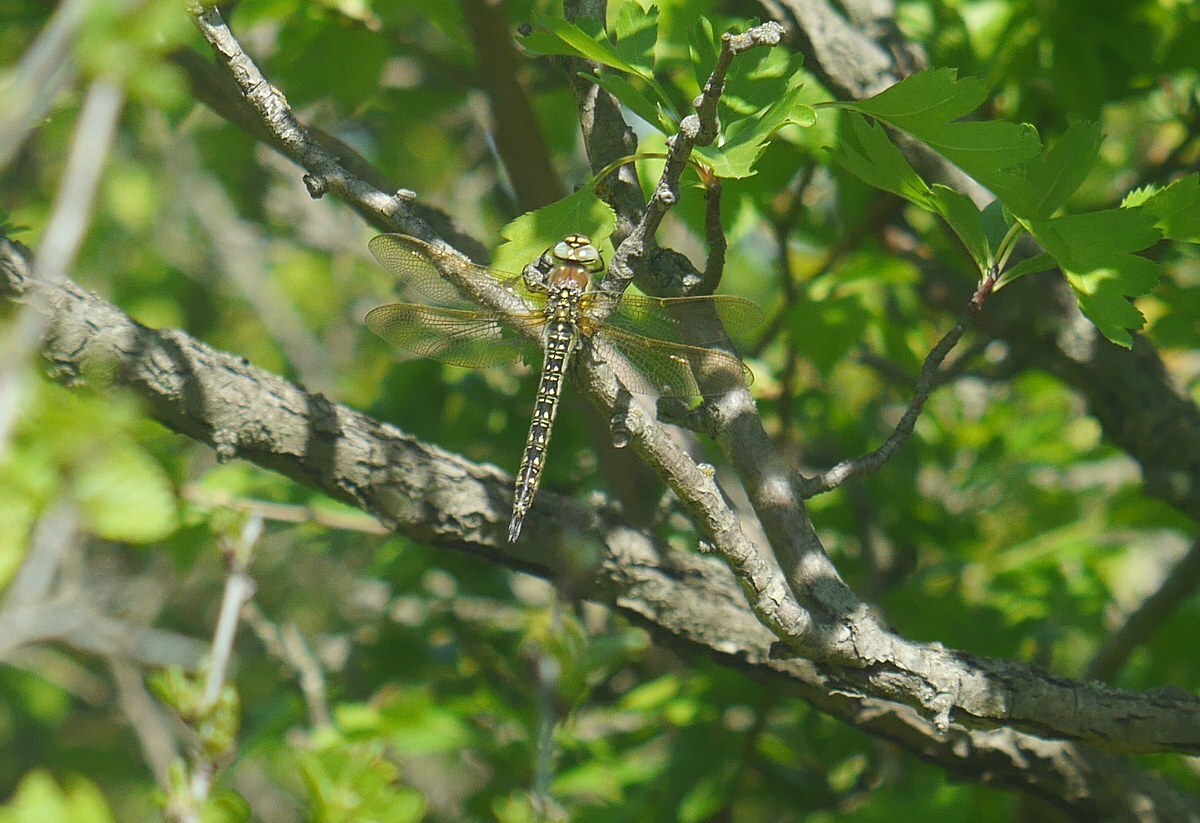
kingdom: Animalia
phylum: Arthropoda
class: Insecta
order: Odonata
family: Aeshnidae
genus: Brachytron
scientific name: Brachytron pratense
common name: Hairy hawker
